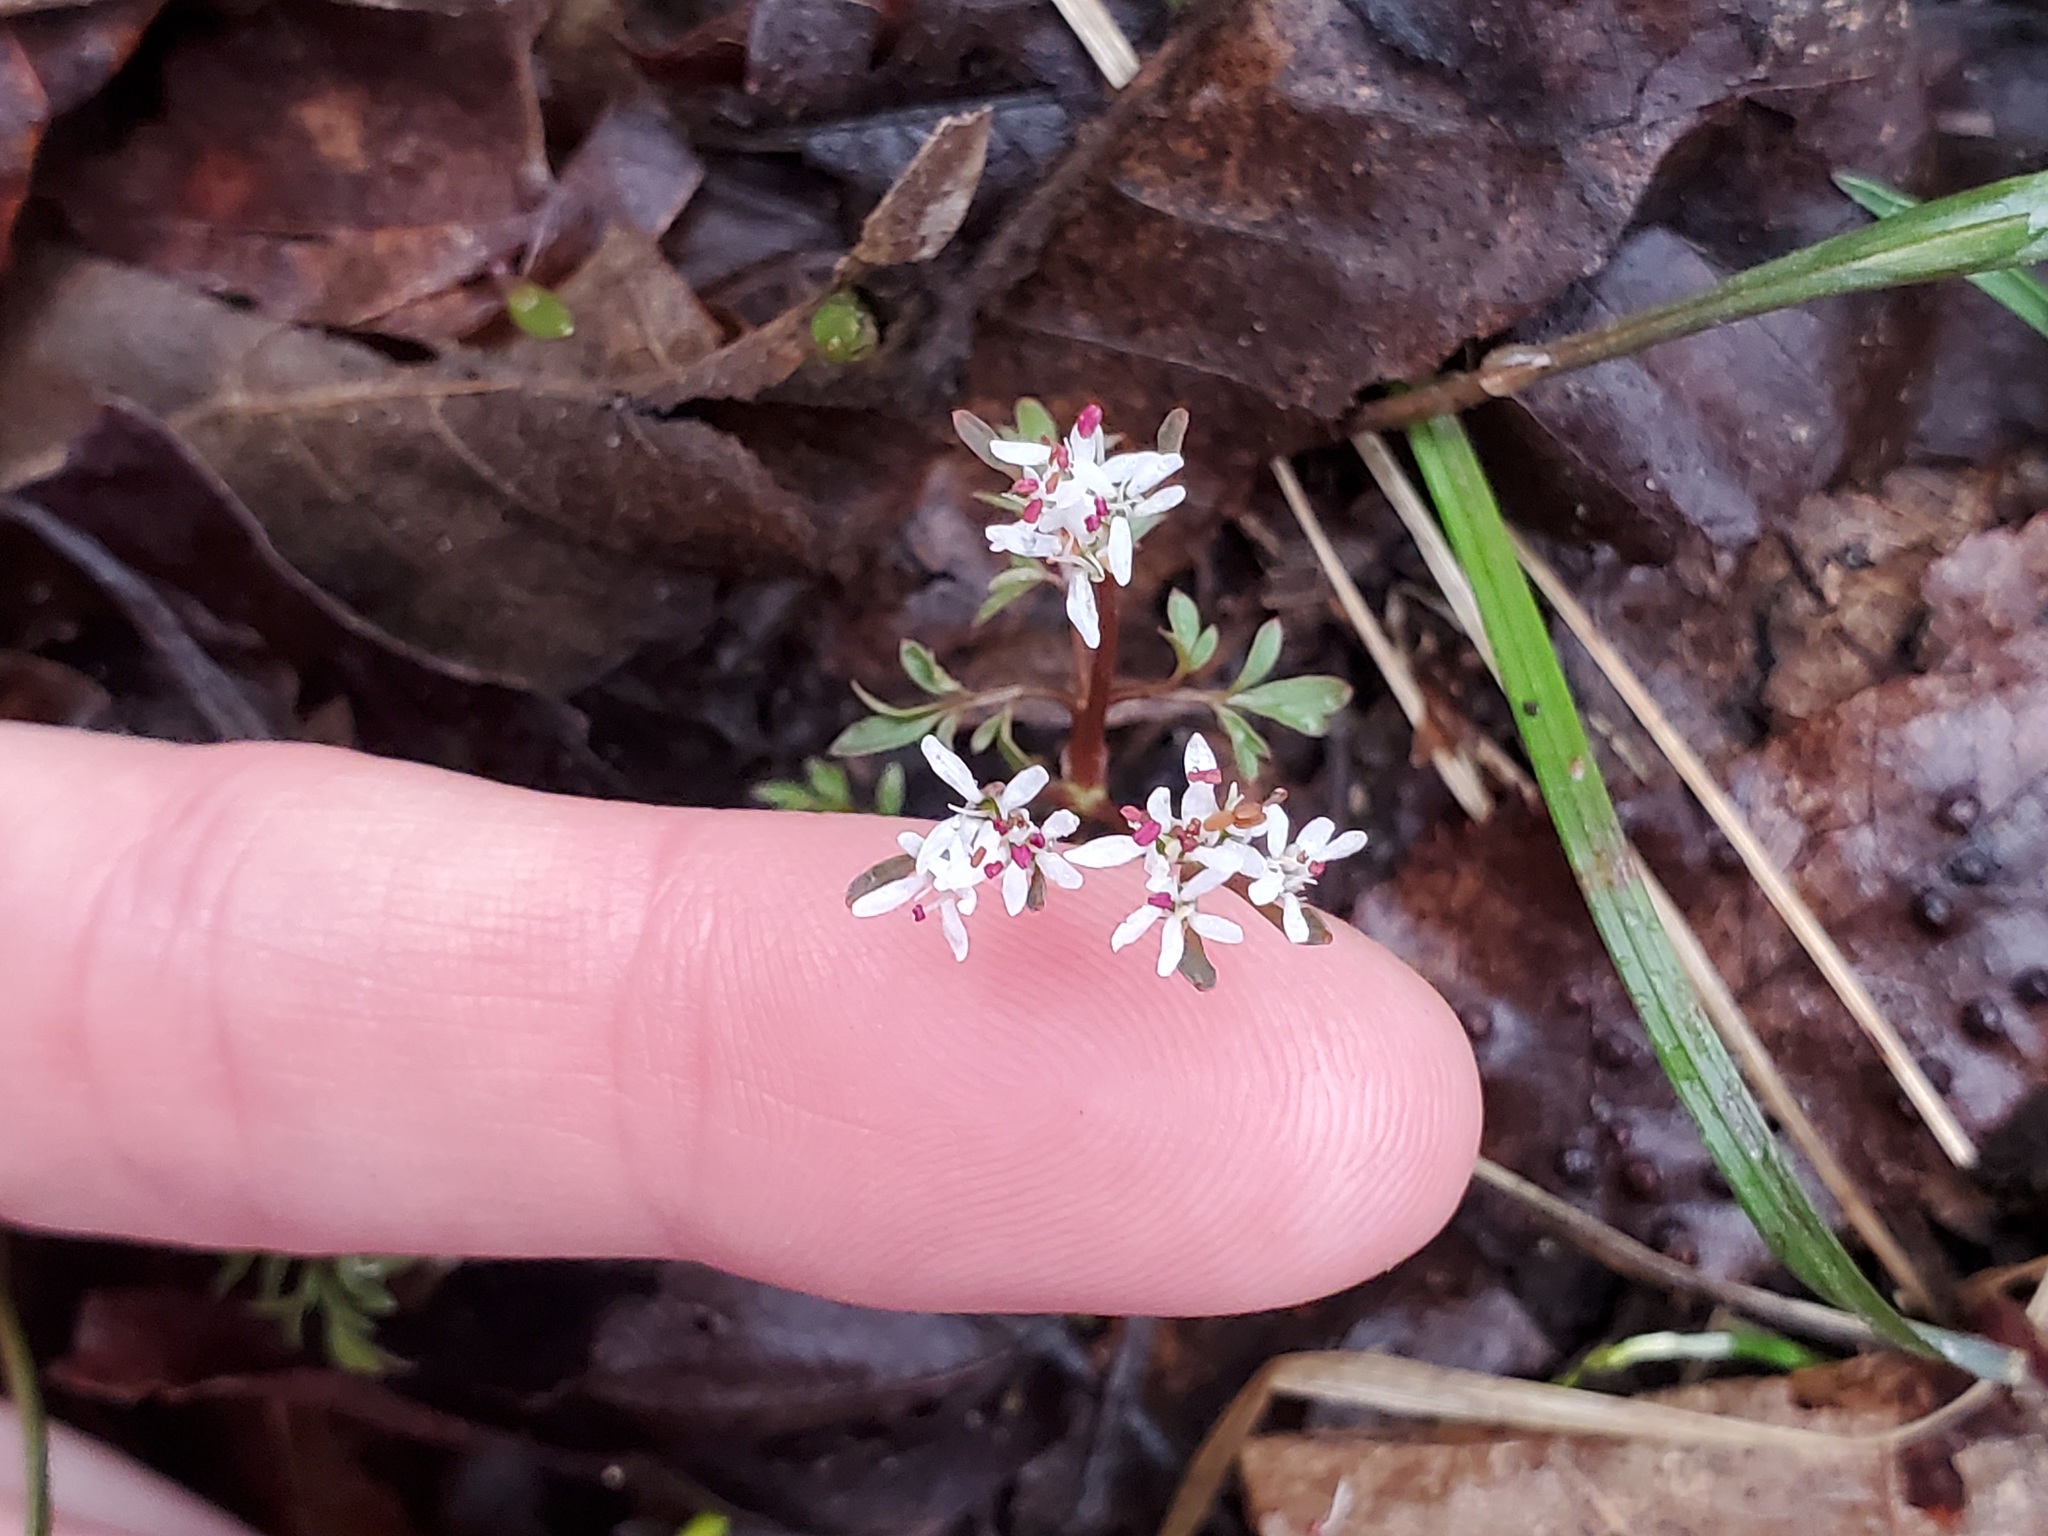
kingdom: Plantae
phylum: Tracheophyta
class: Magnoliopsida
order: Apiales
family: Apiaceae
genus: Erigenia
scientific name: Erigenia bulbosa
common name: Pepper-and-salt
